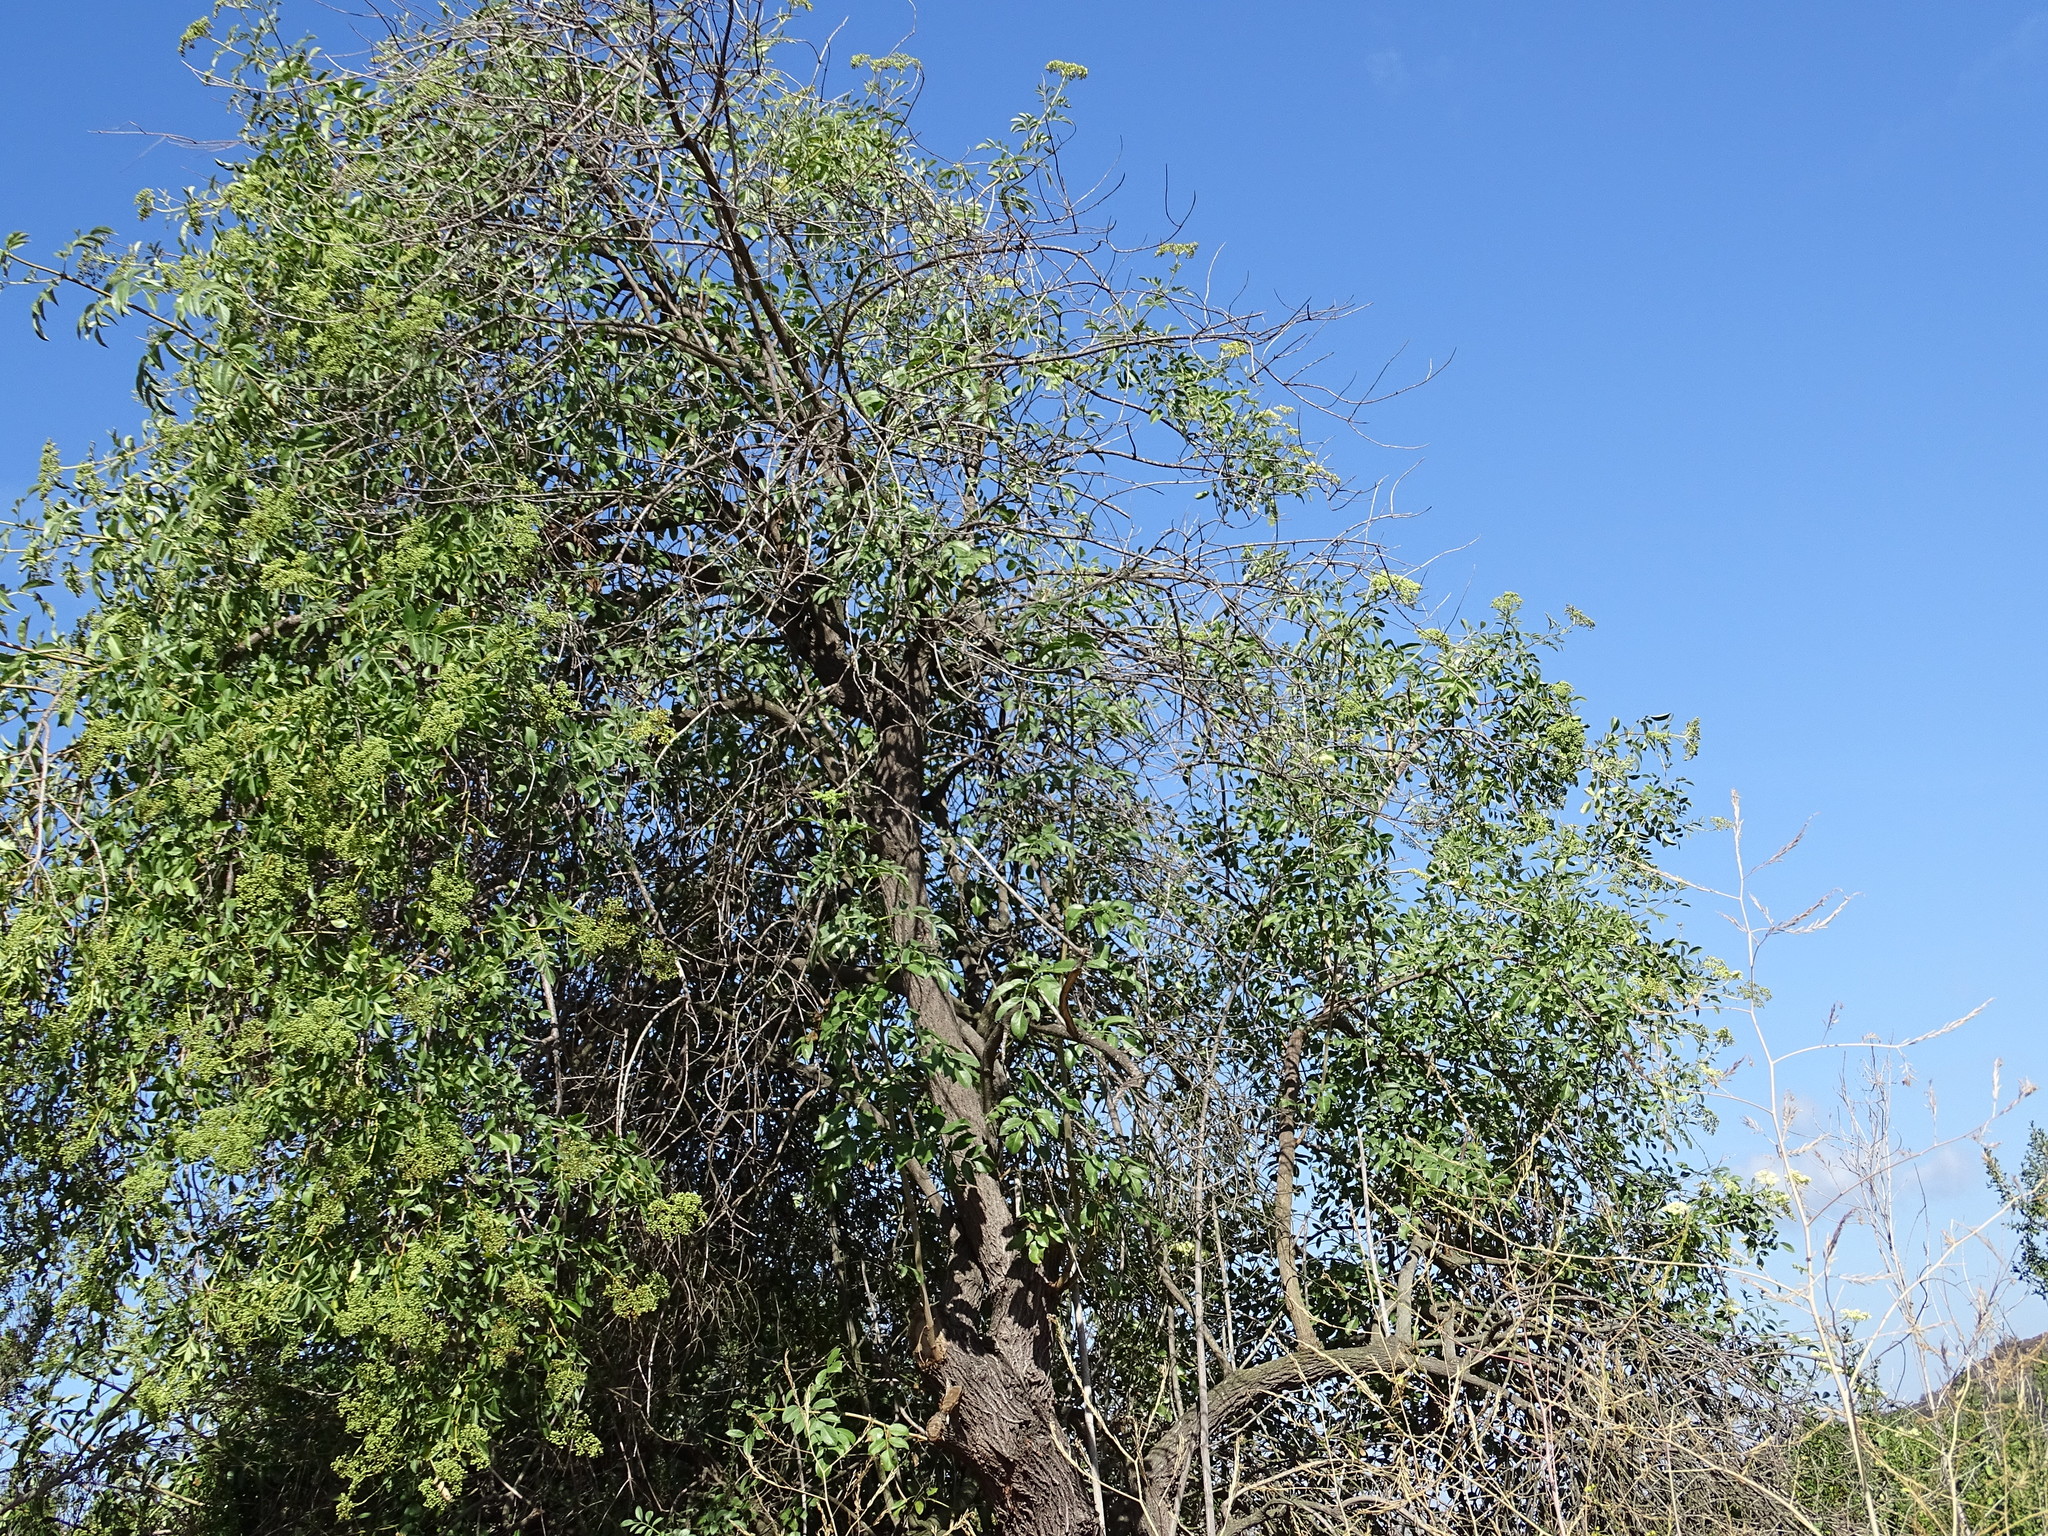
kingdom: Plantae
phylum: Tracheophyta
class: Magnoliopsida
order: Dipsacales
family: Viburnaceae
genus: Sambucus
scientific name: Sambucus cerulea
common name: Blue elder
